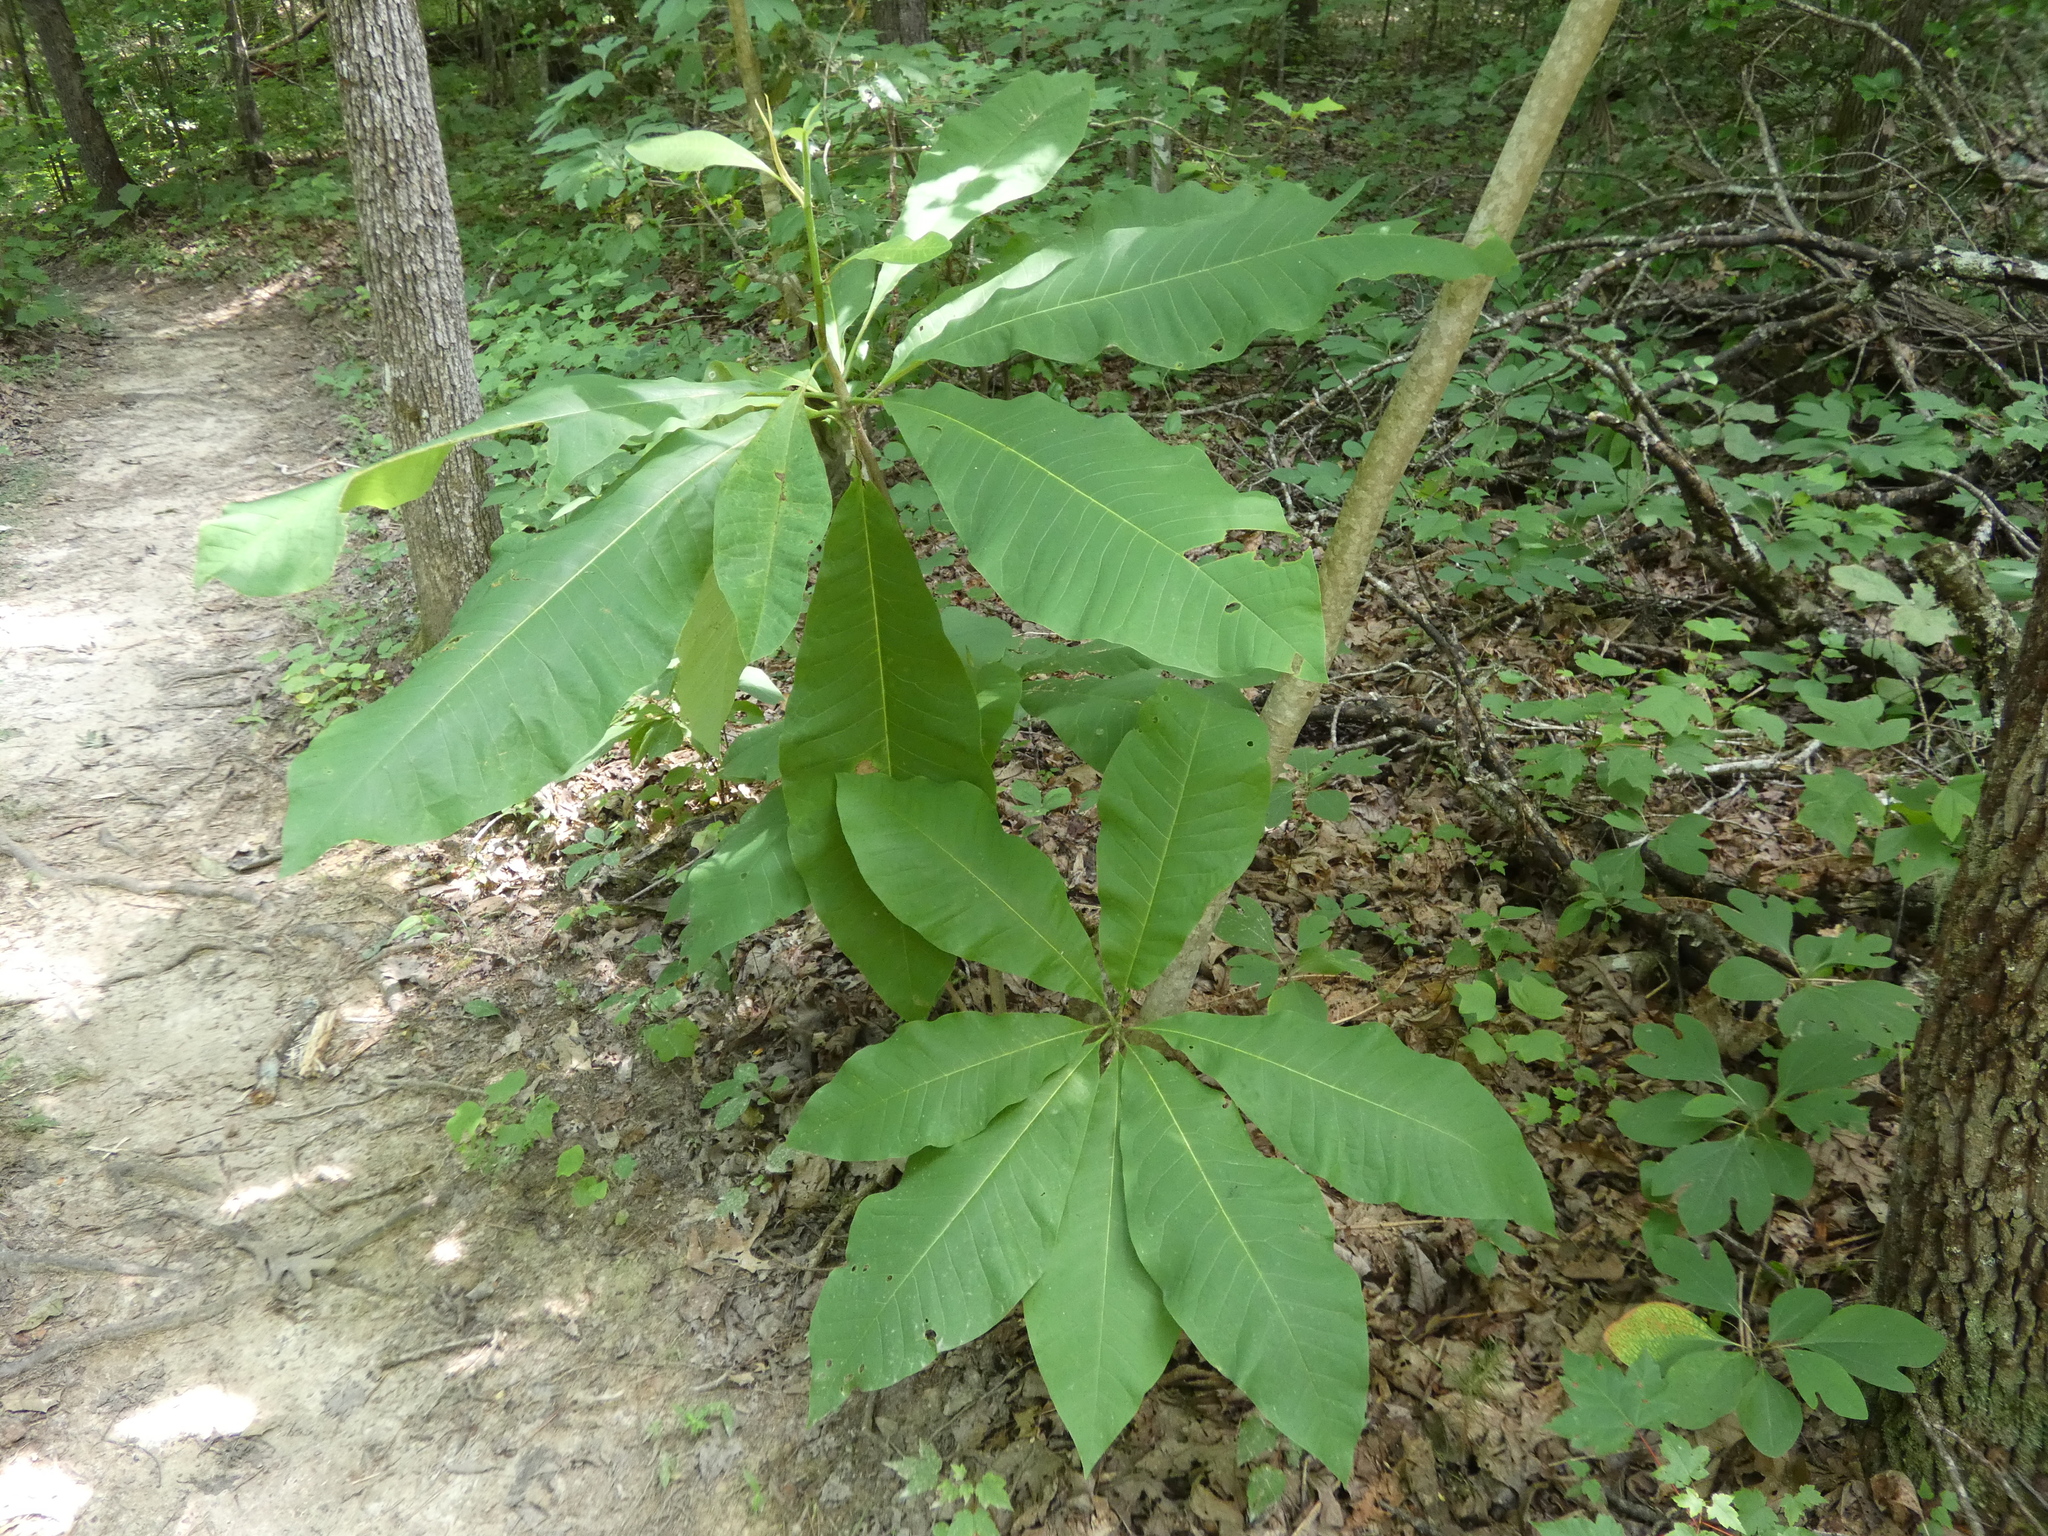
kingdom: Plantae
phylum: Tracheophyta
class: Magnoliopsida
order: Magnoliales
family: Magnoliaceae
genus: Magnolia
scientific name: Magnolia tripetala
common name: Umbrella magnolia
